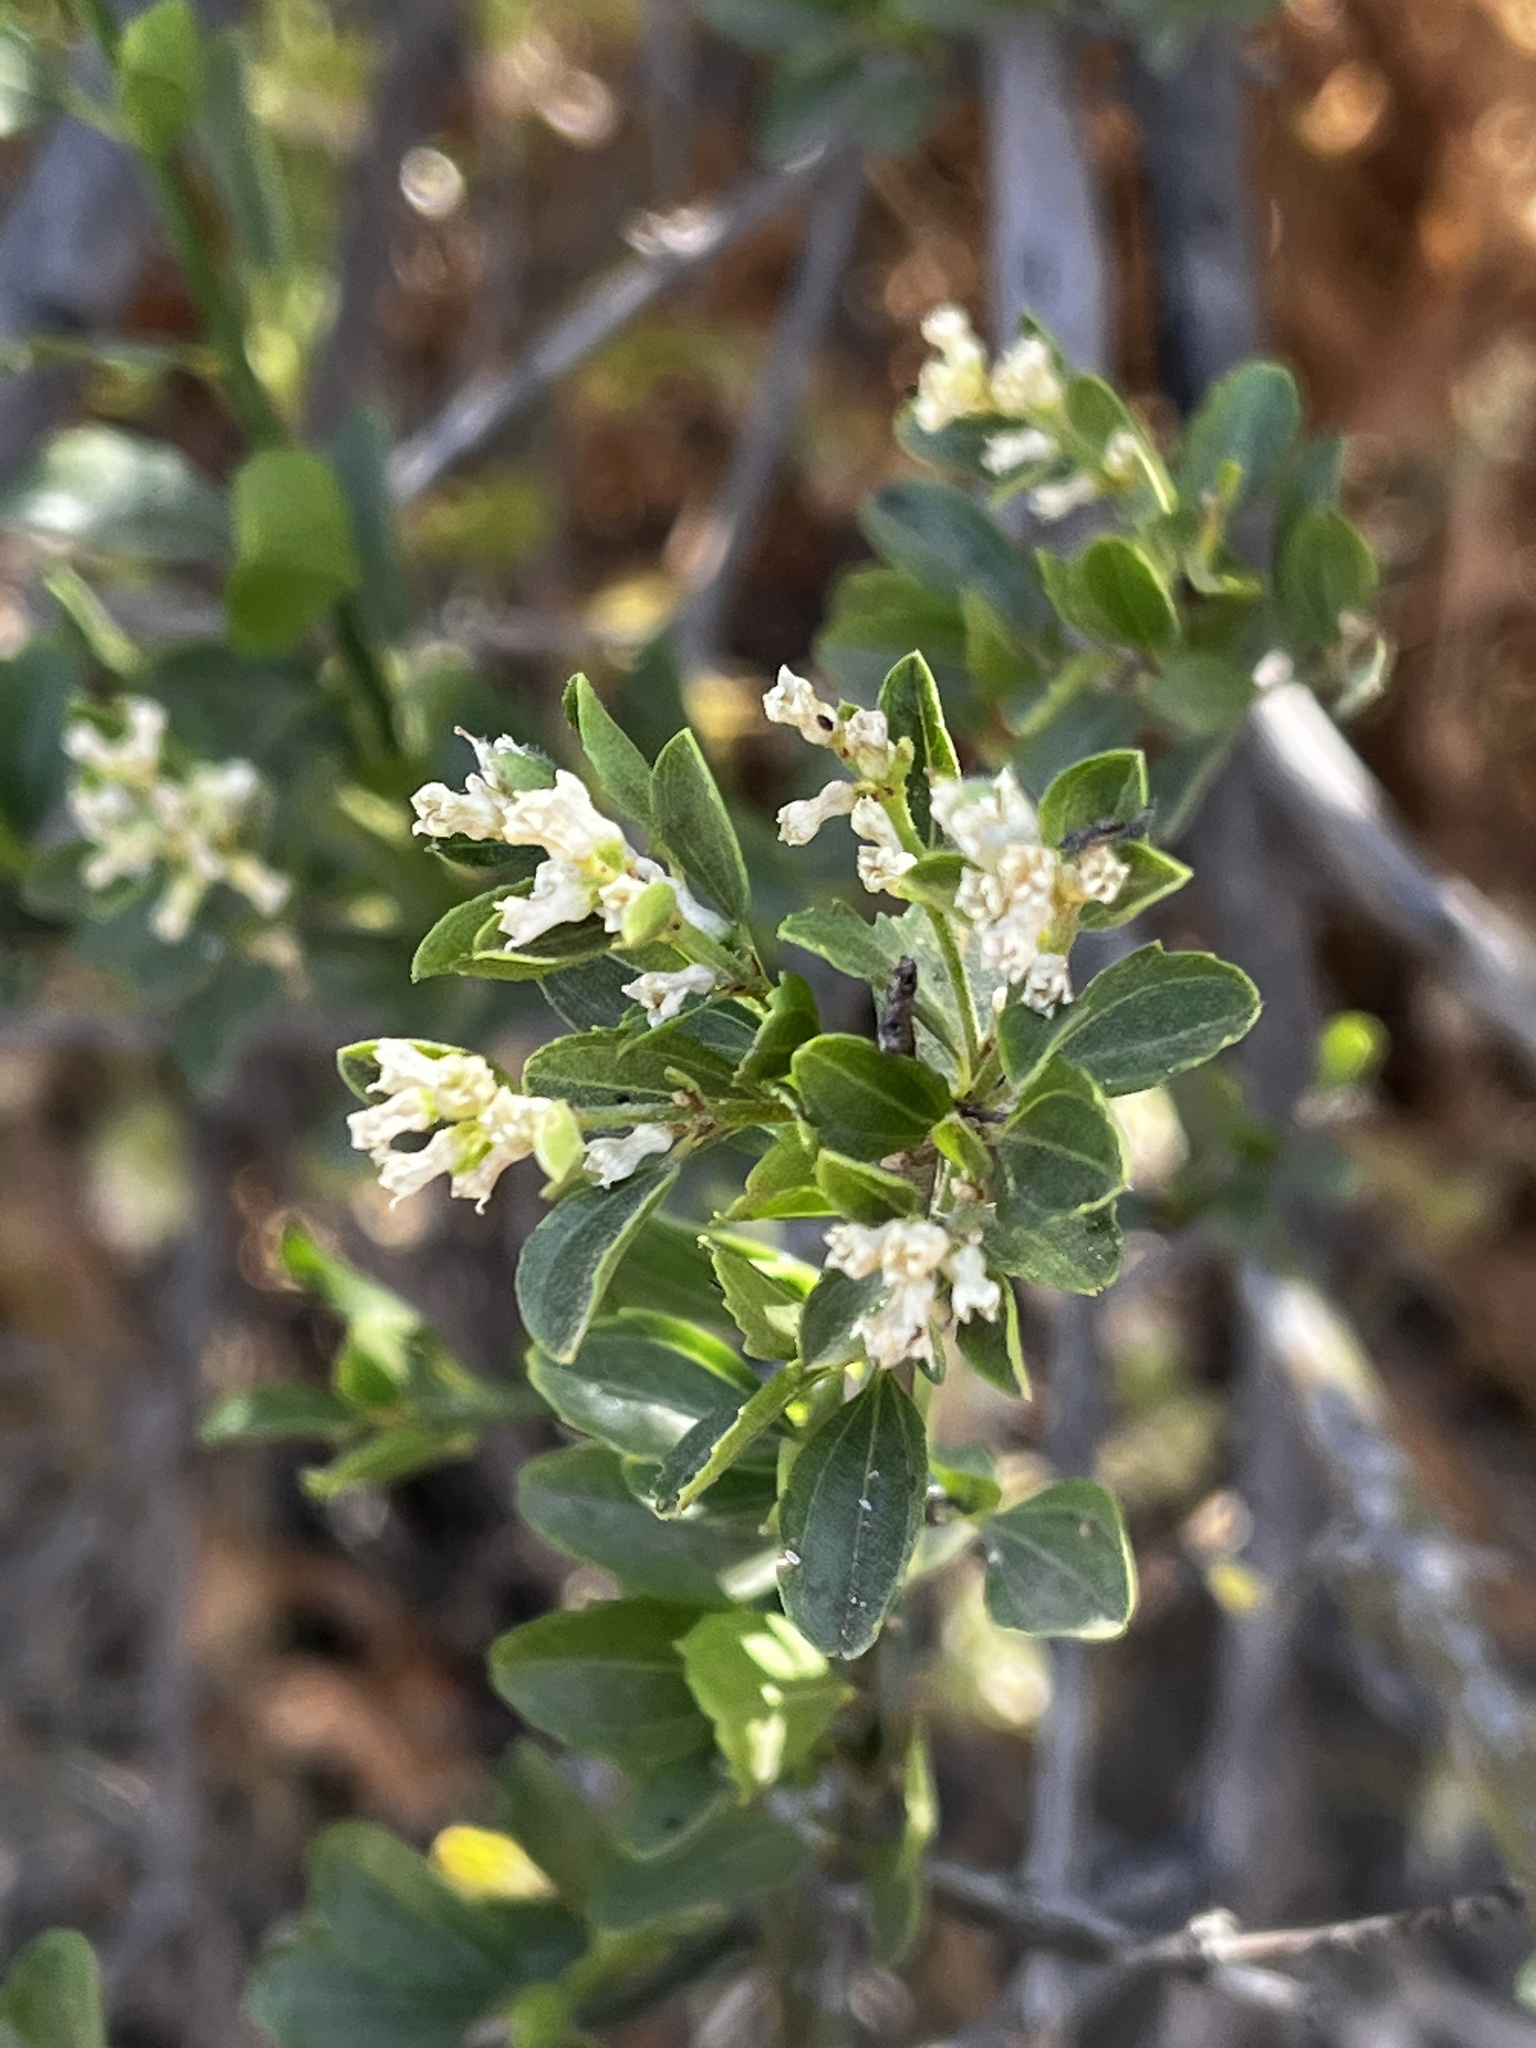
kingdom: Plantae
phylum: Tracheophyta
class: Magnoliopsida
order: Rosales
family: Rhamnaceae
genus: Retanilla
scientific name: Retanilla trinervia
